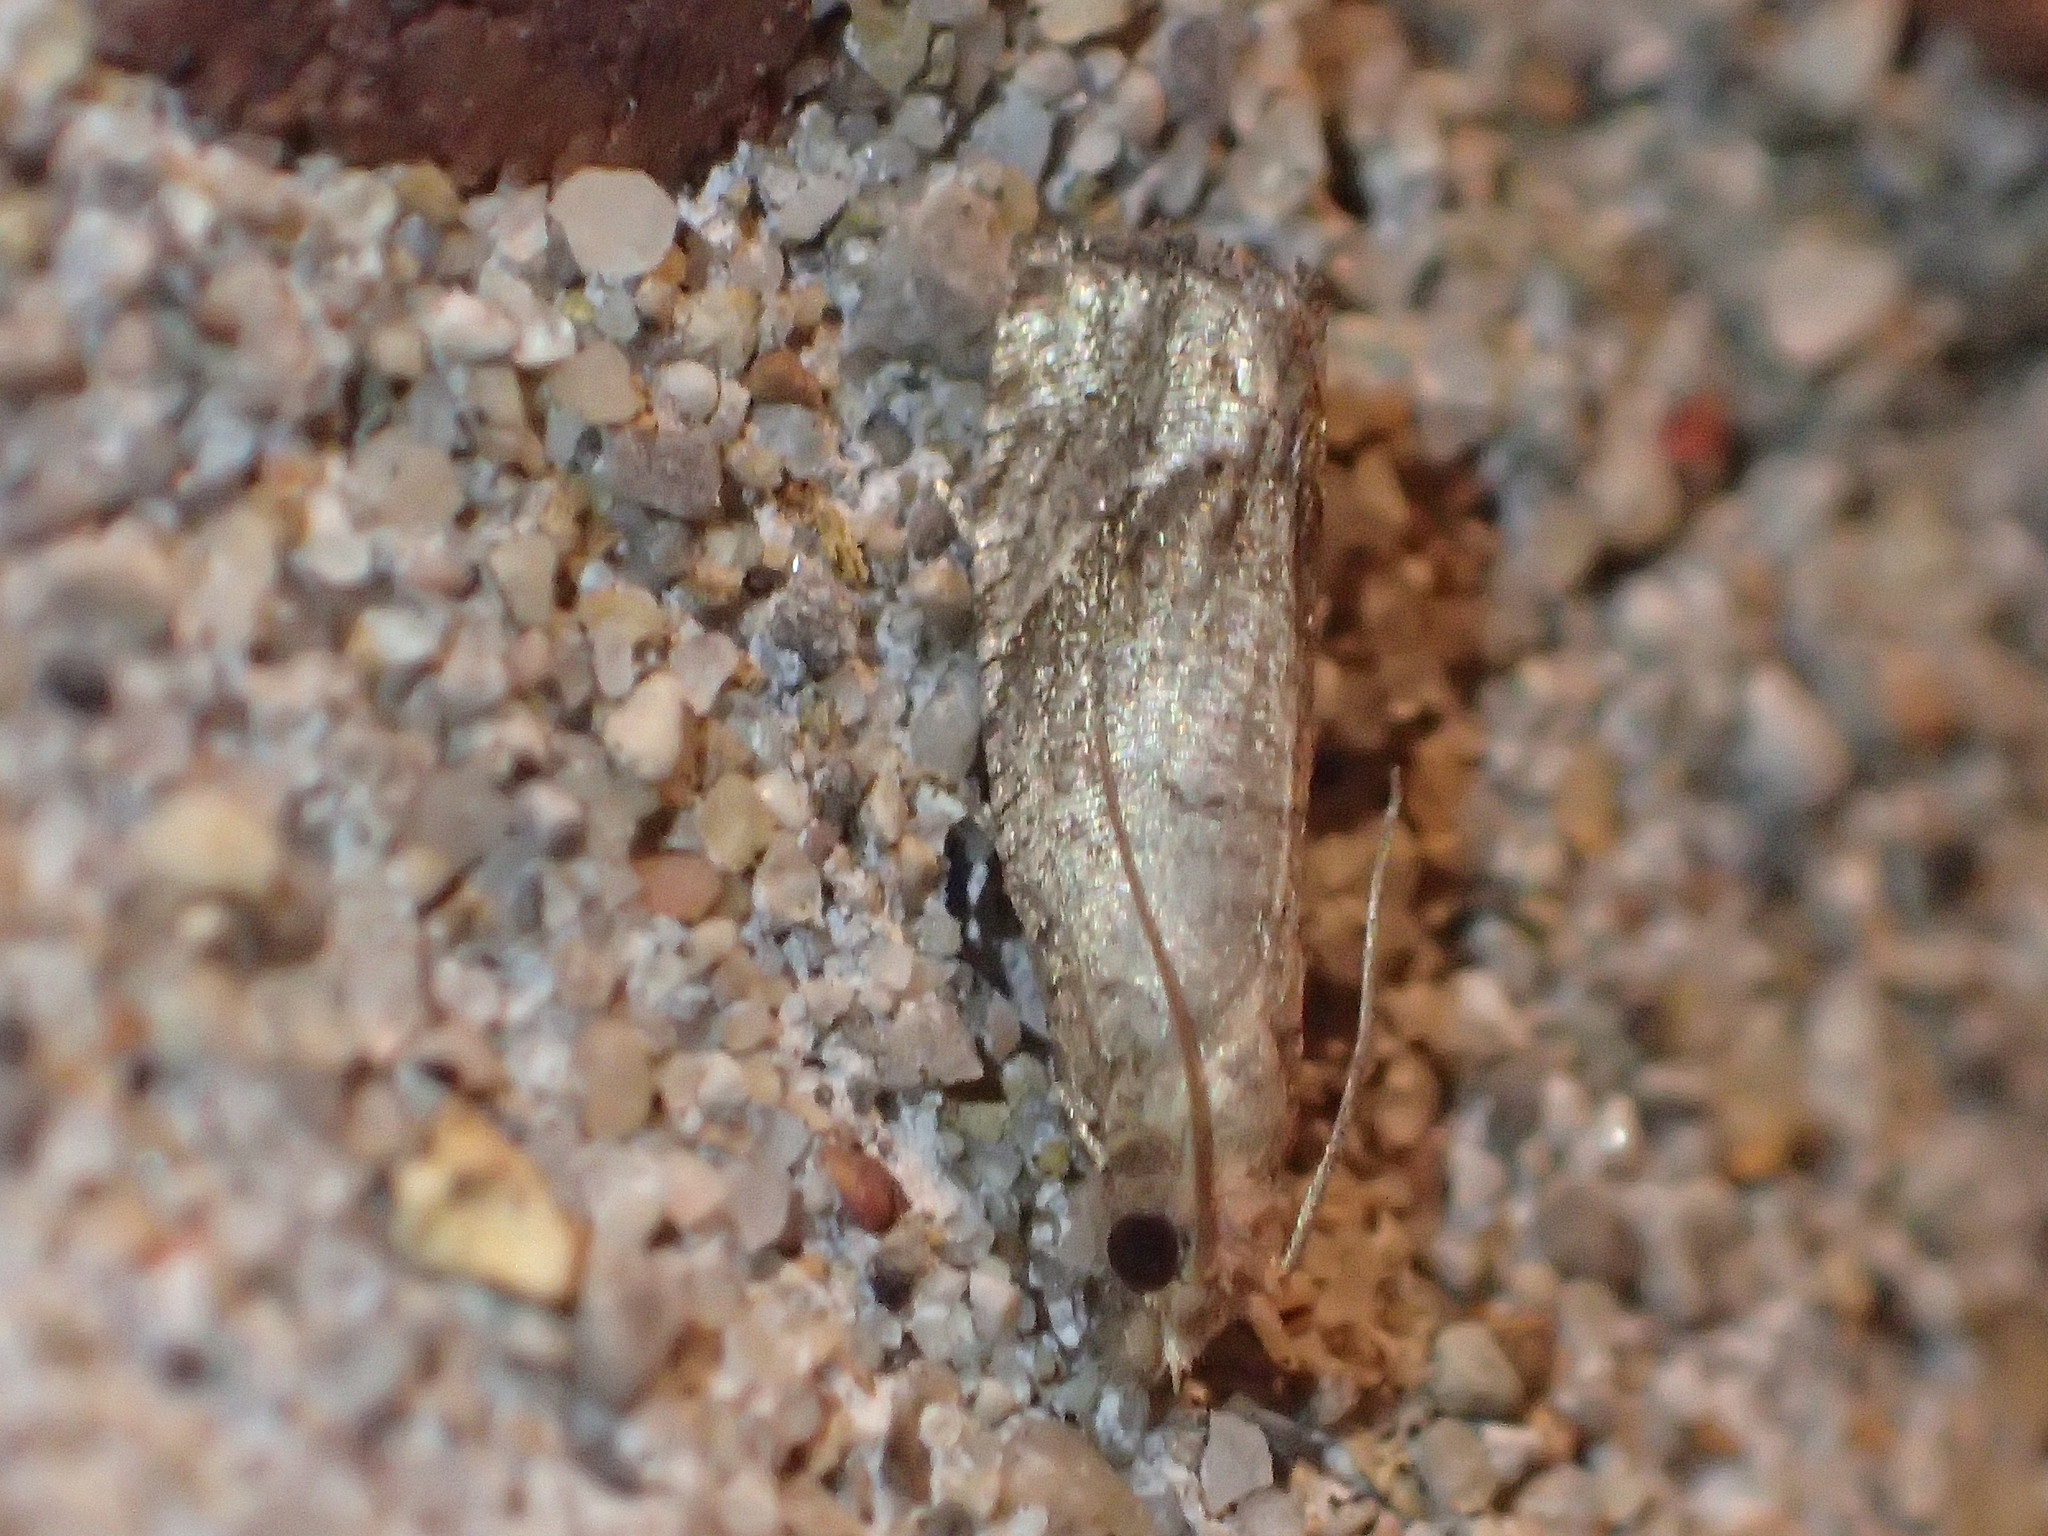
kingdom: Animalia
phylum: Arthropoda
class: Insecta
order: Lepidoptera
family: Tortricidae
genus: Pelochrista
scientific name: Pelochrista derelicta
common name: Derelict pelochrista moth
